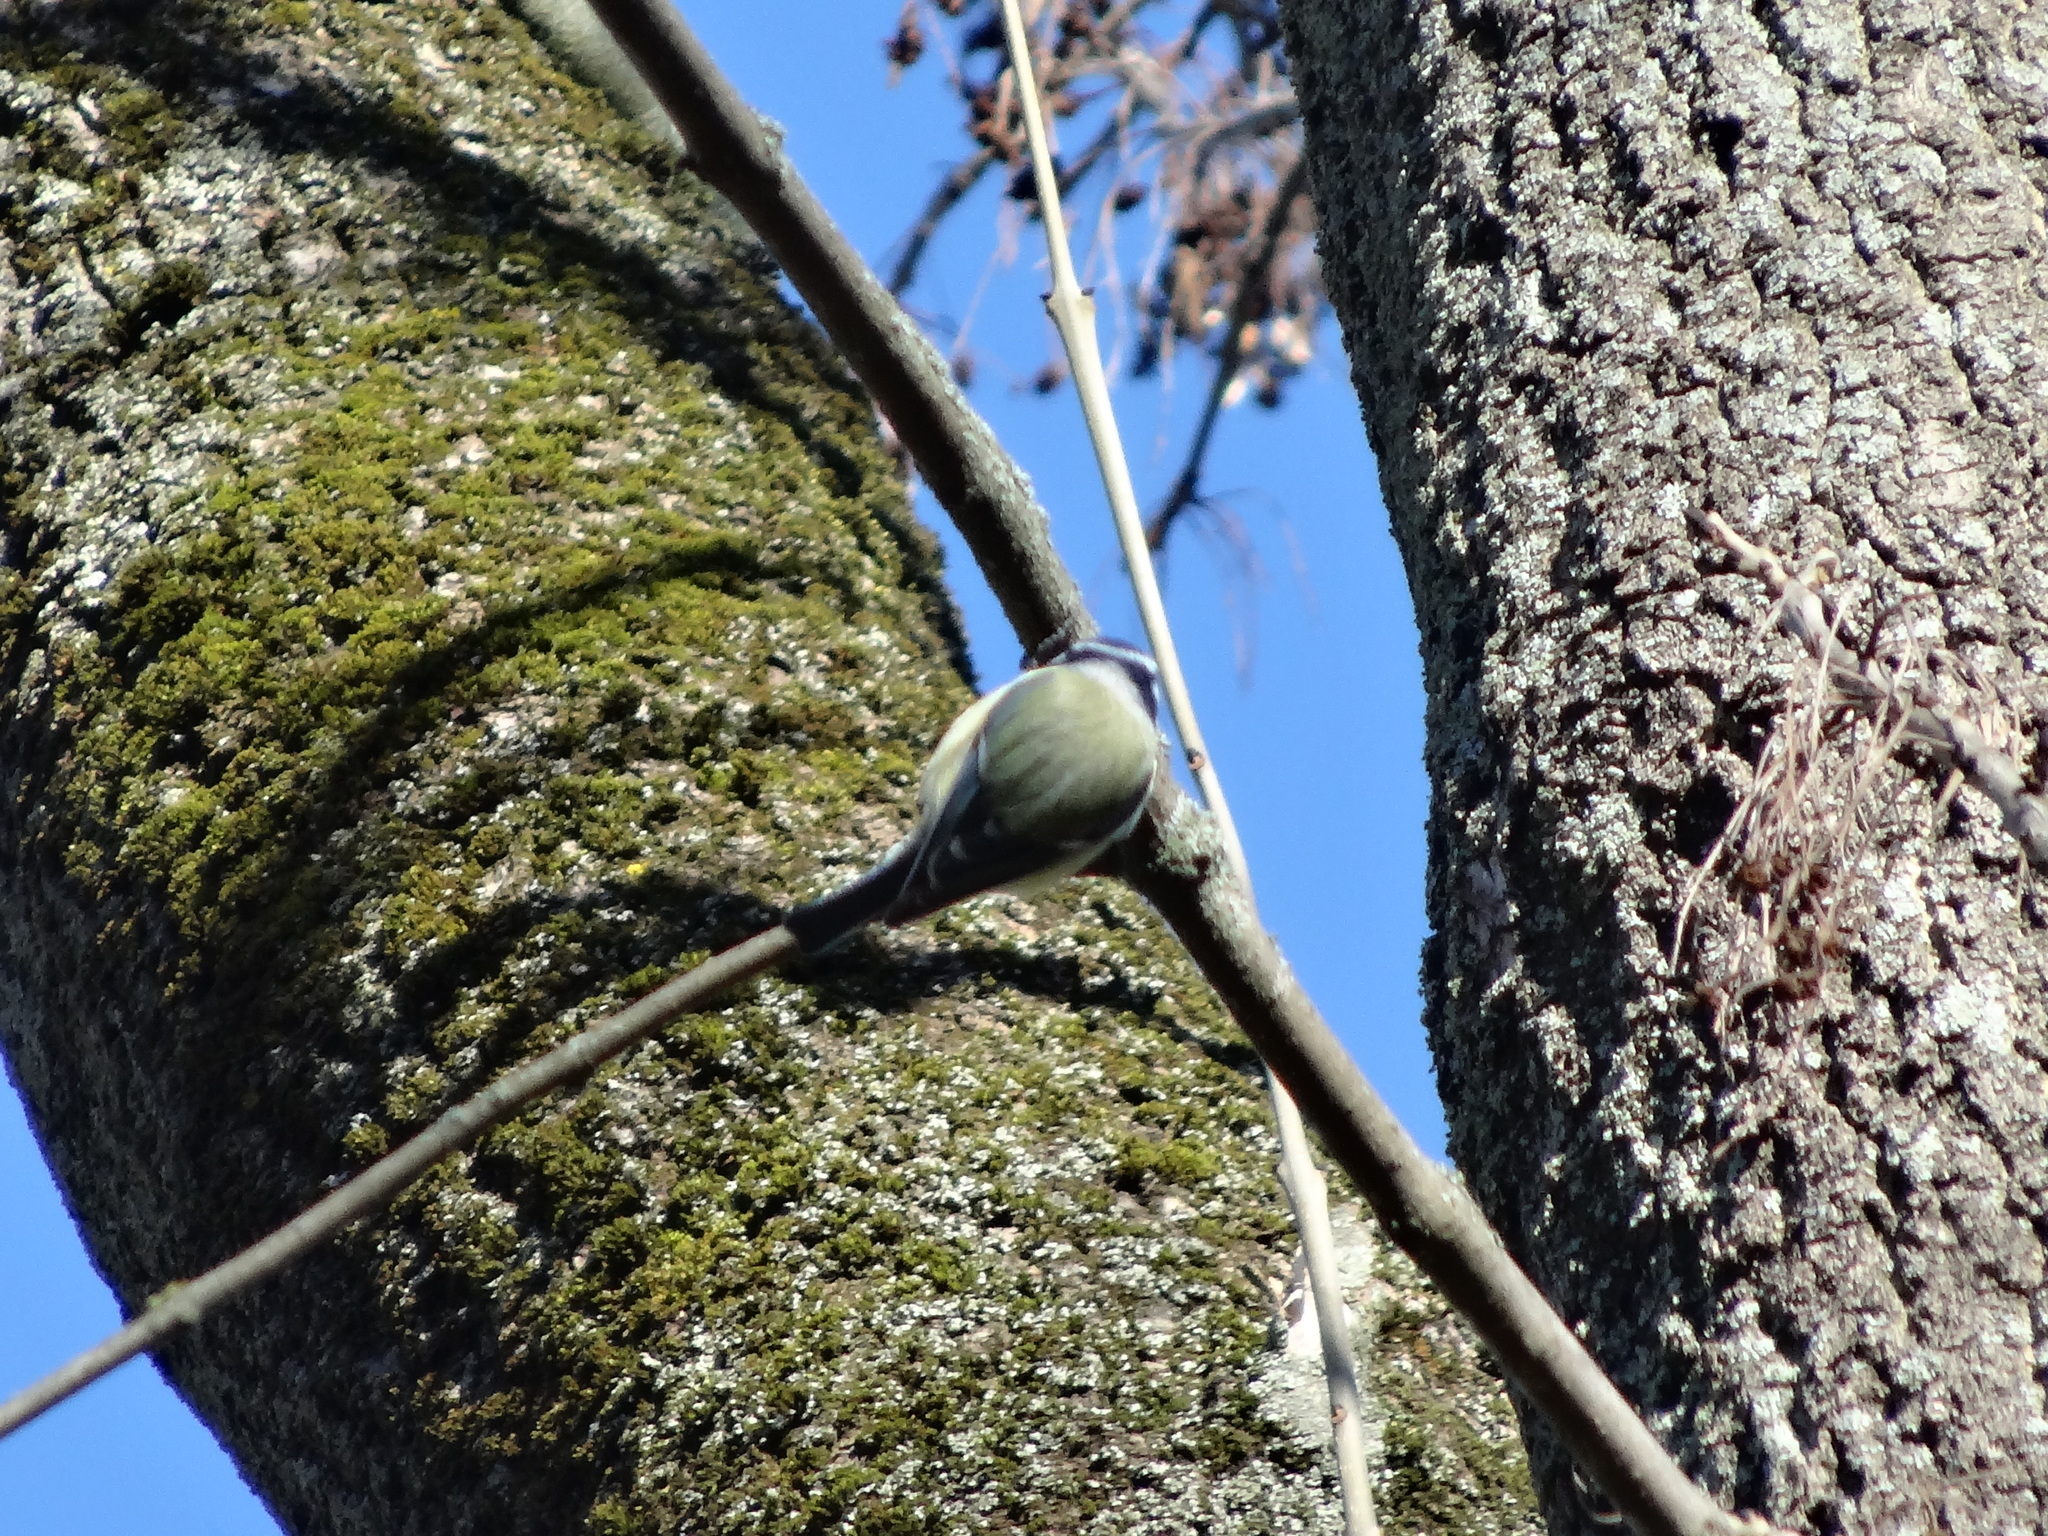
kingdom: Animalia
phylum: Chordata
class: Aves
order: Passeriformes
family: Paridae
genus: Cyanistes
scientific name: Cyanistes caeruleus
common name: Eurasian blue tit
